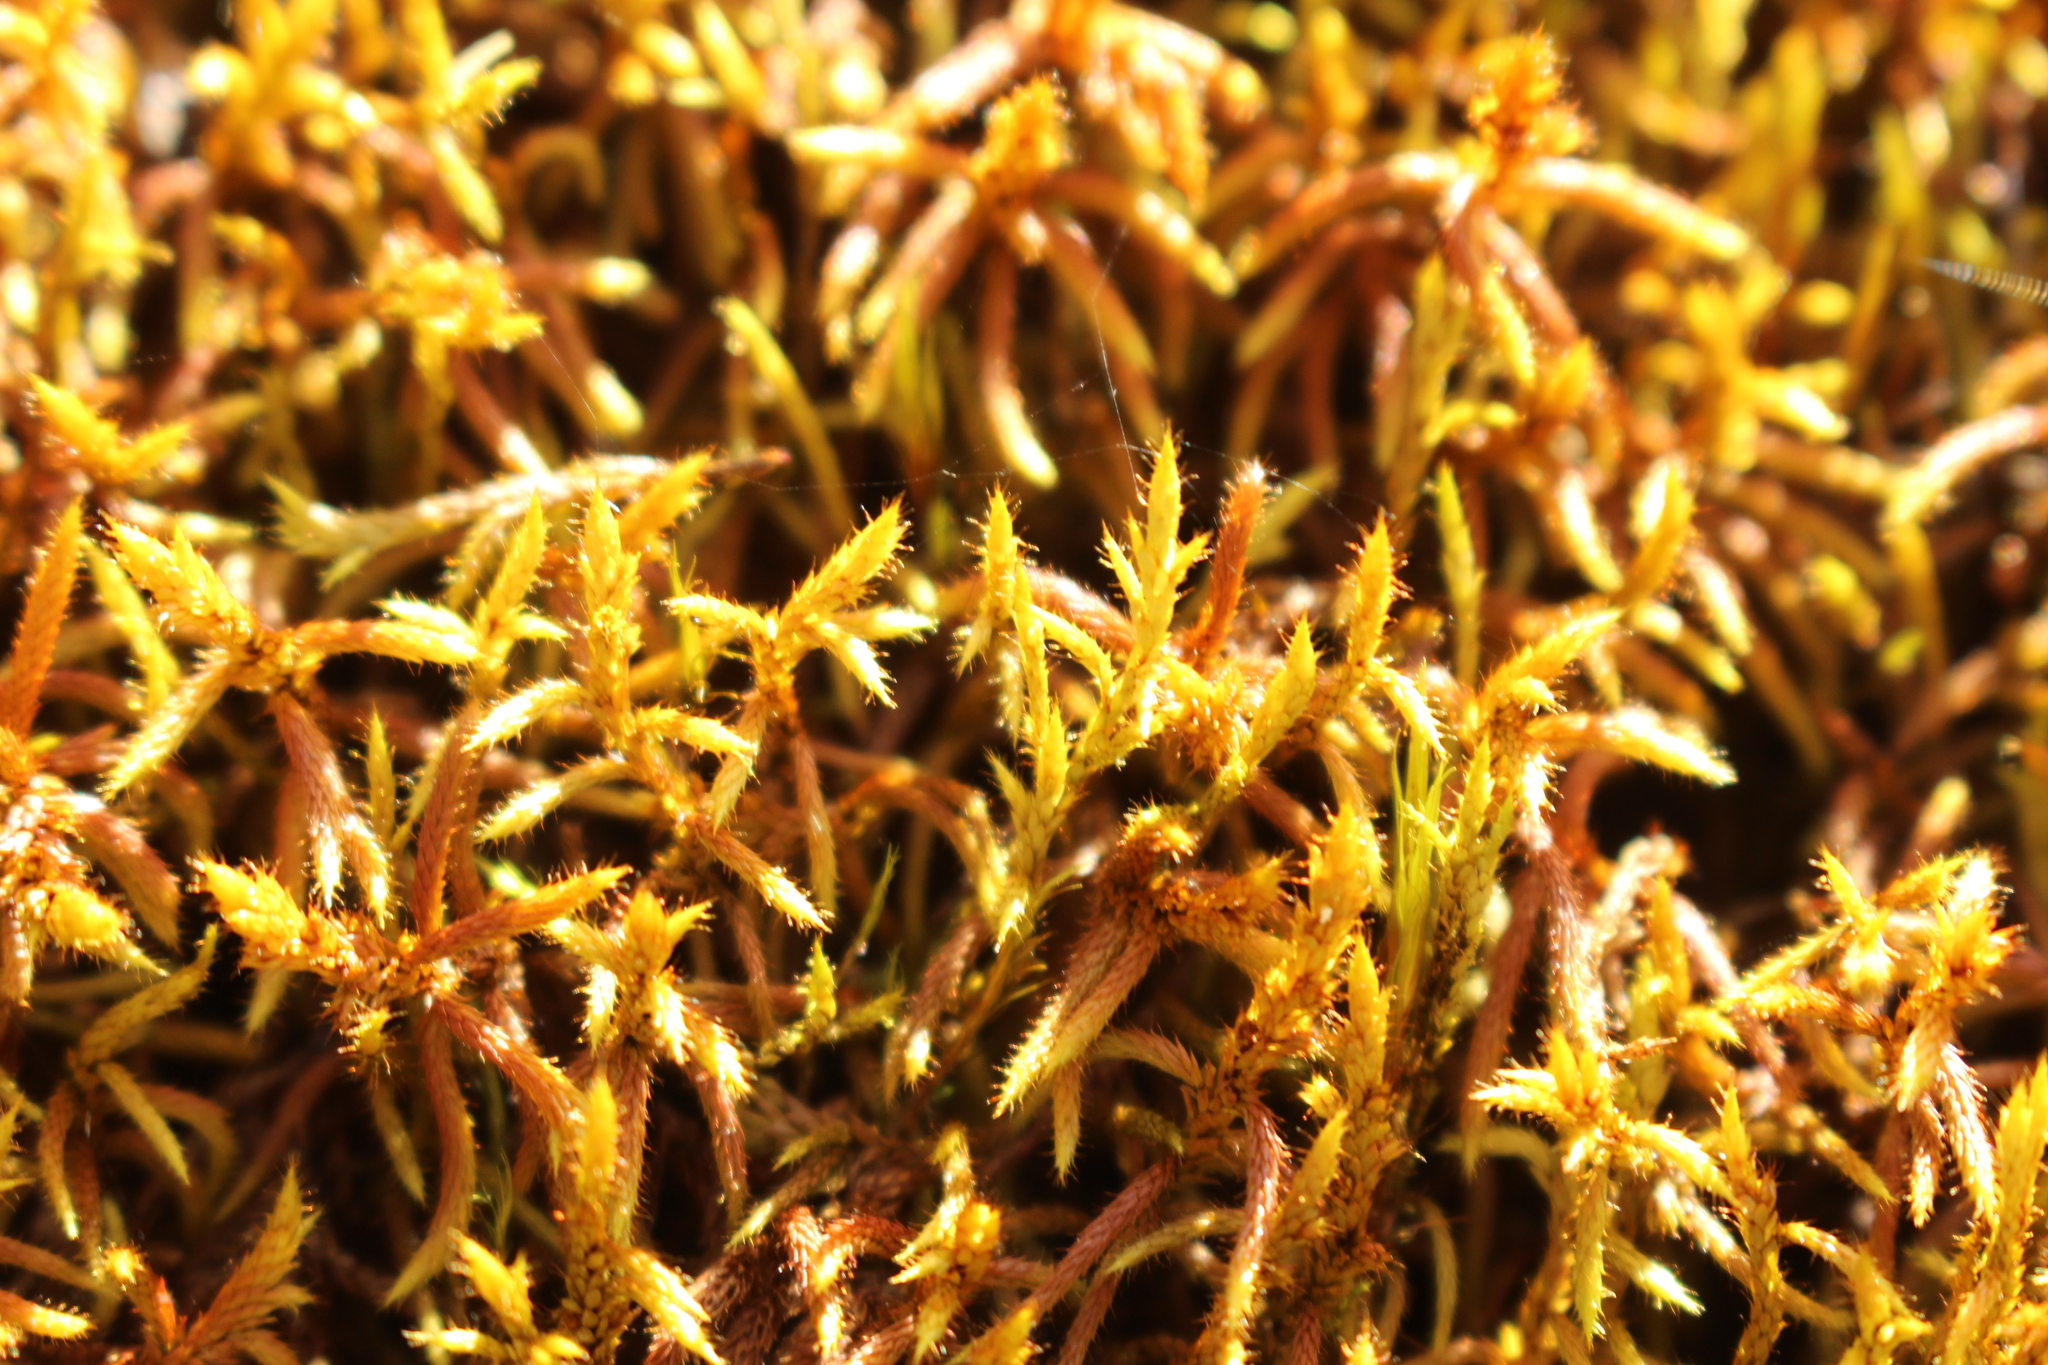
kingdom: Plantae
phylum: Bryophyta
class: Bryopsida
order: Hedwigiales
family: Hedwigiaceae
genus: Rhacocarpus
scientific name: Rhacocarpus purpurascens
